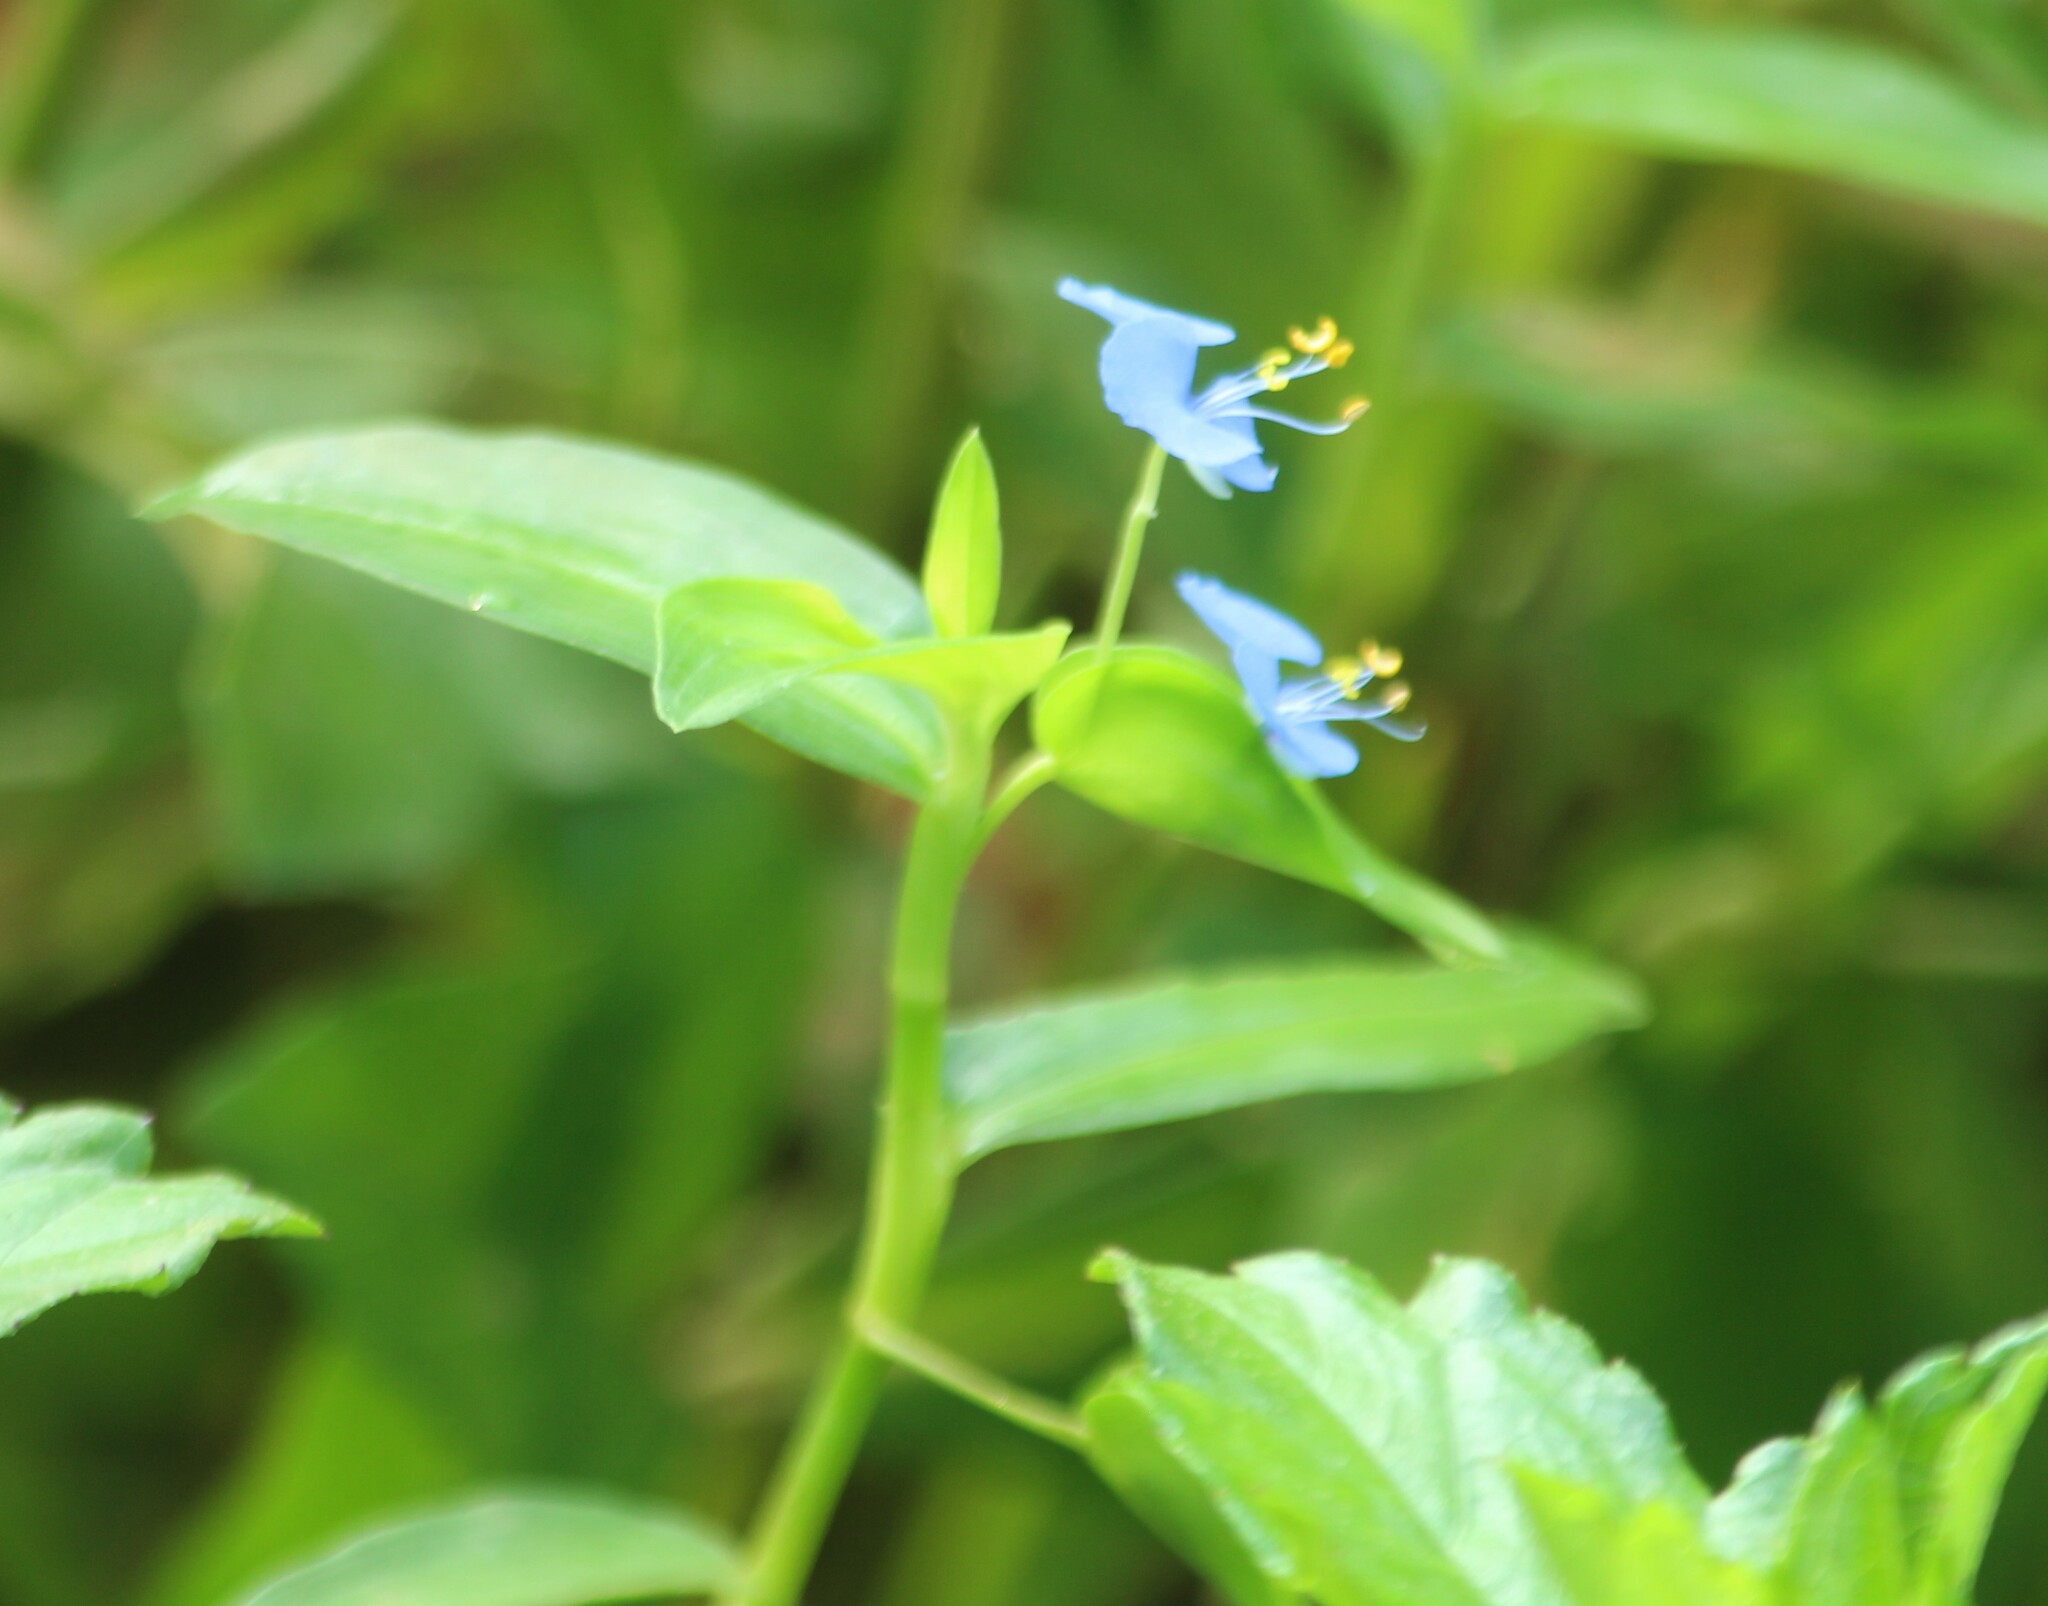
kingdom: Plantae
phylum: Tracheophyta
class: Liliopsida
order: Commelinales
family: Commelinaceae
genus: Commelina
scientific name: Commelina diffusa
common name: Climbing dayflower
